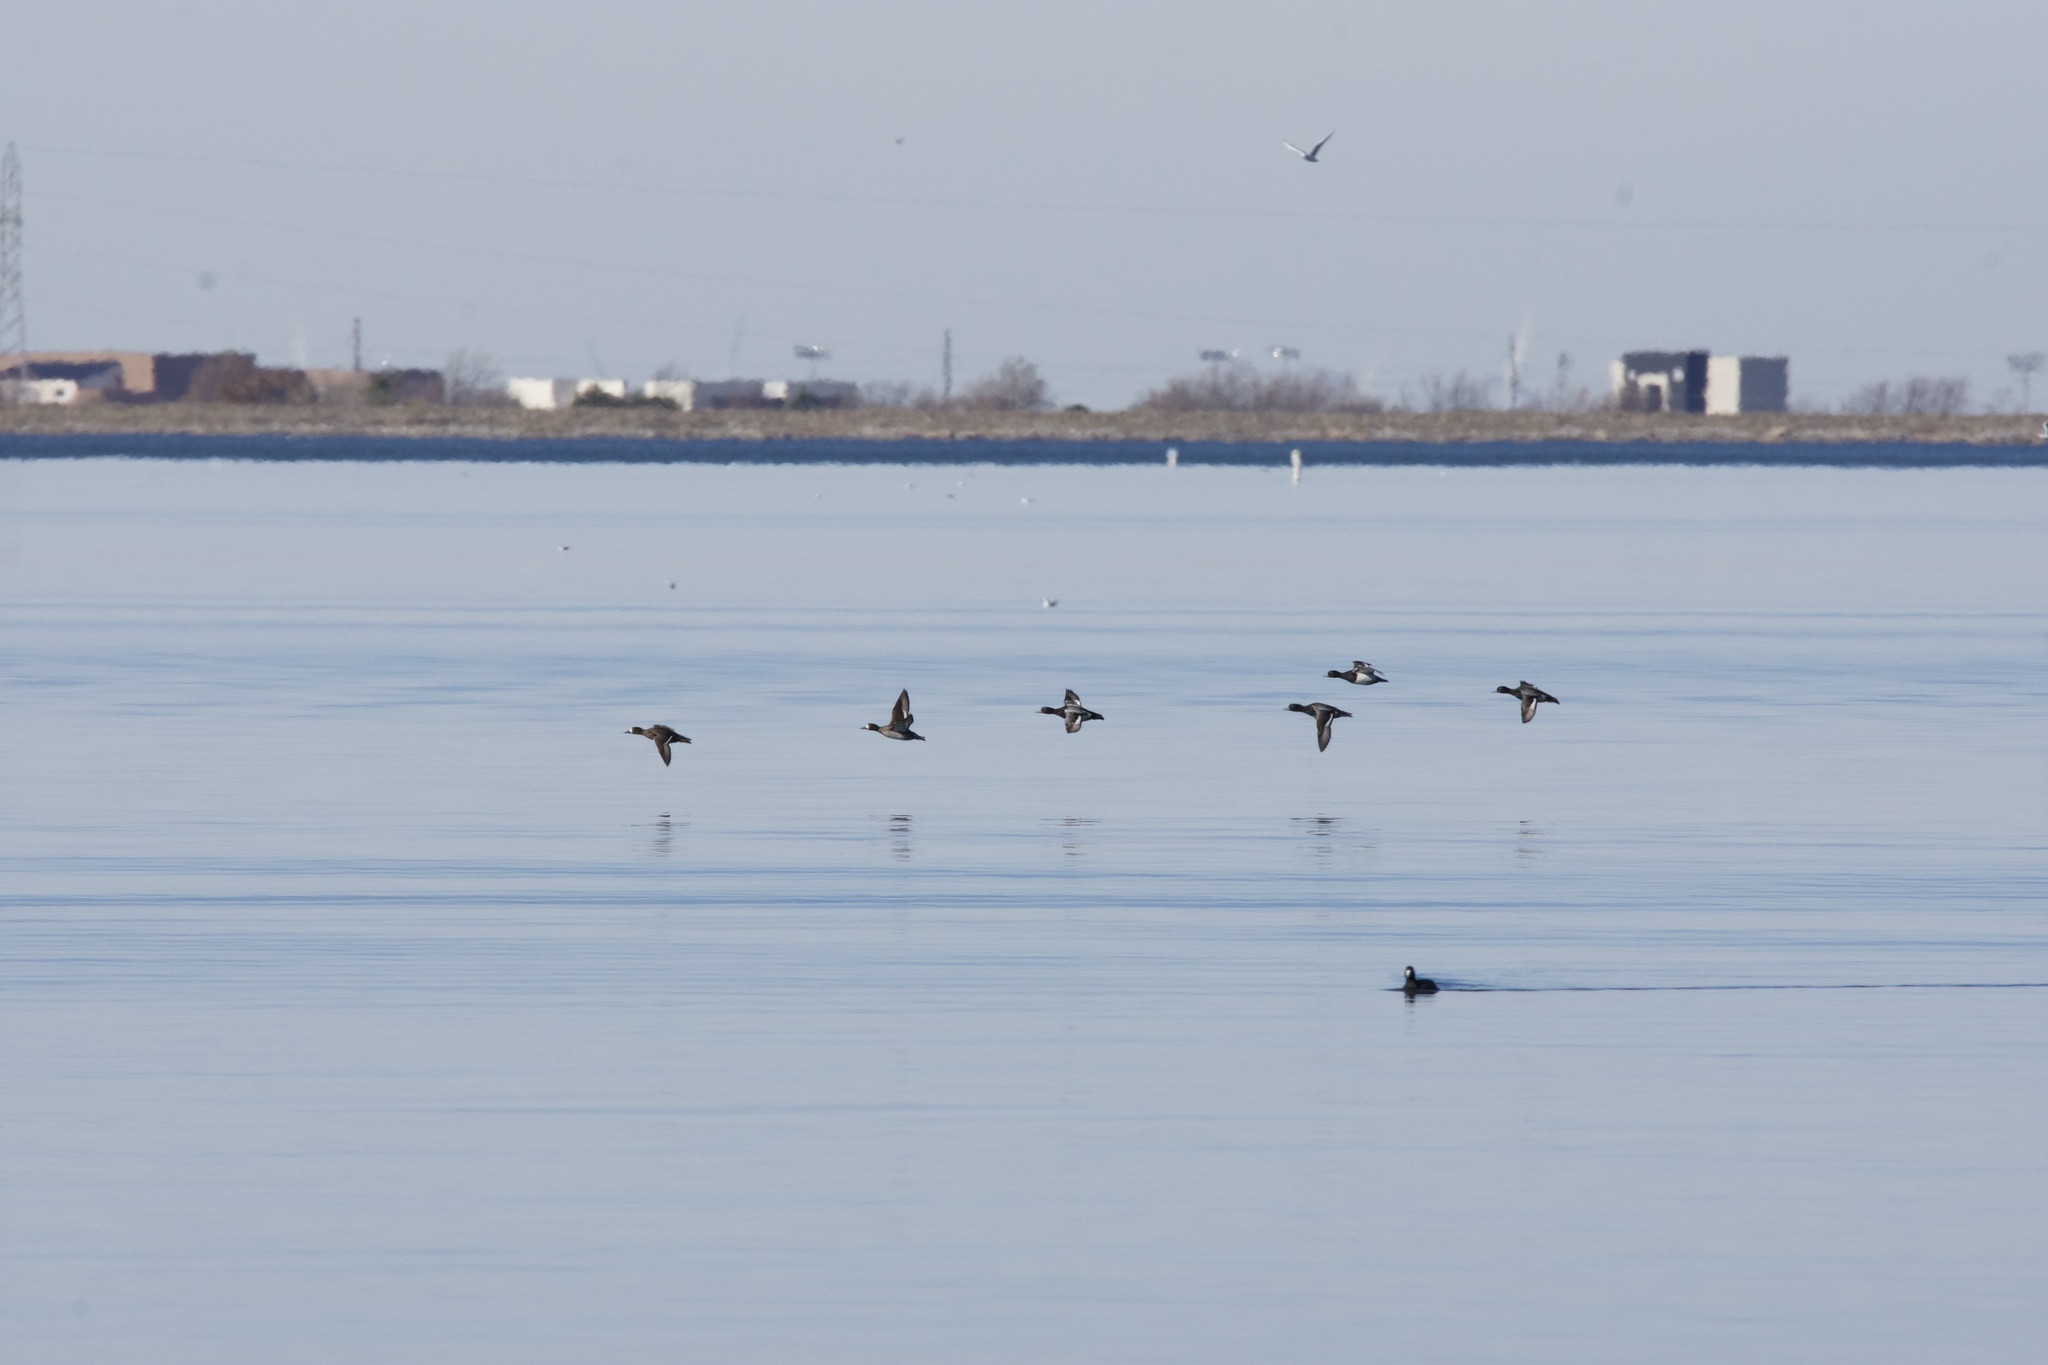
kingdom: Animalia
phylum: Chordata
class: Aves
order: Anseriformes
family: Anatidae
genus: Aythya
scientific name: Aythya affinis
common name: Lesser scaup
